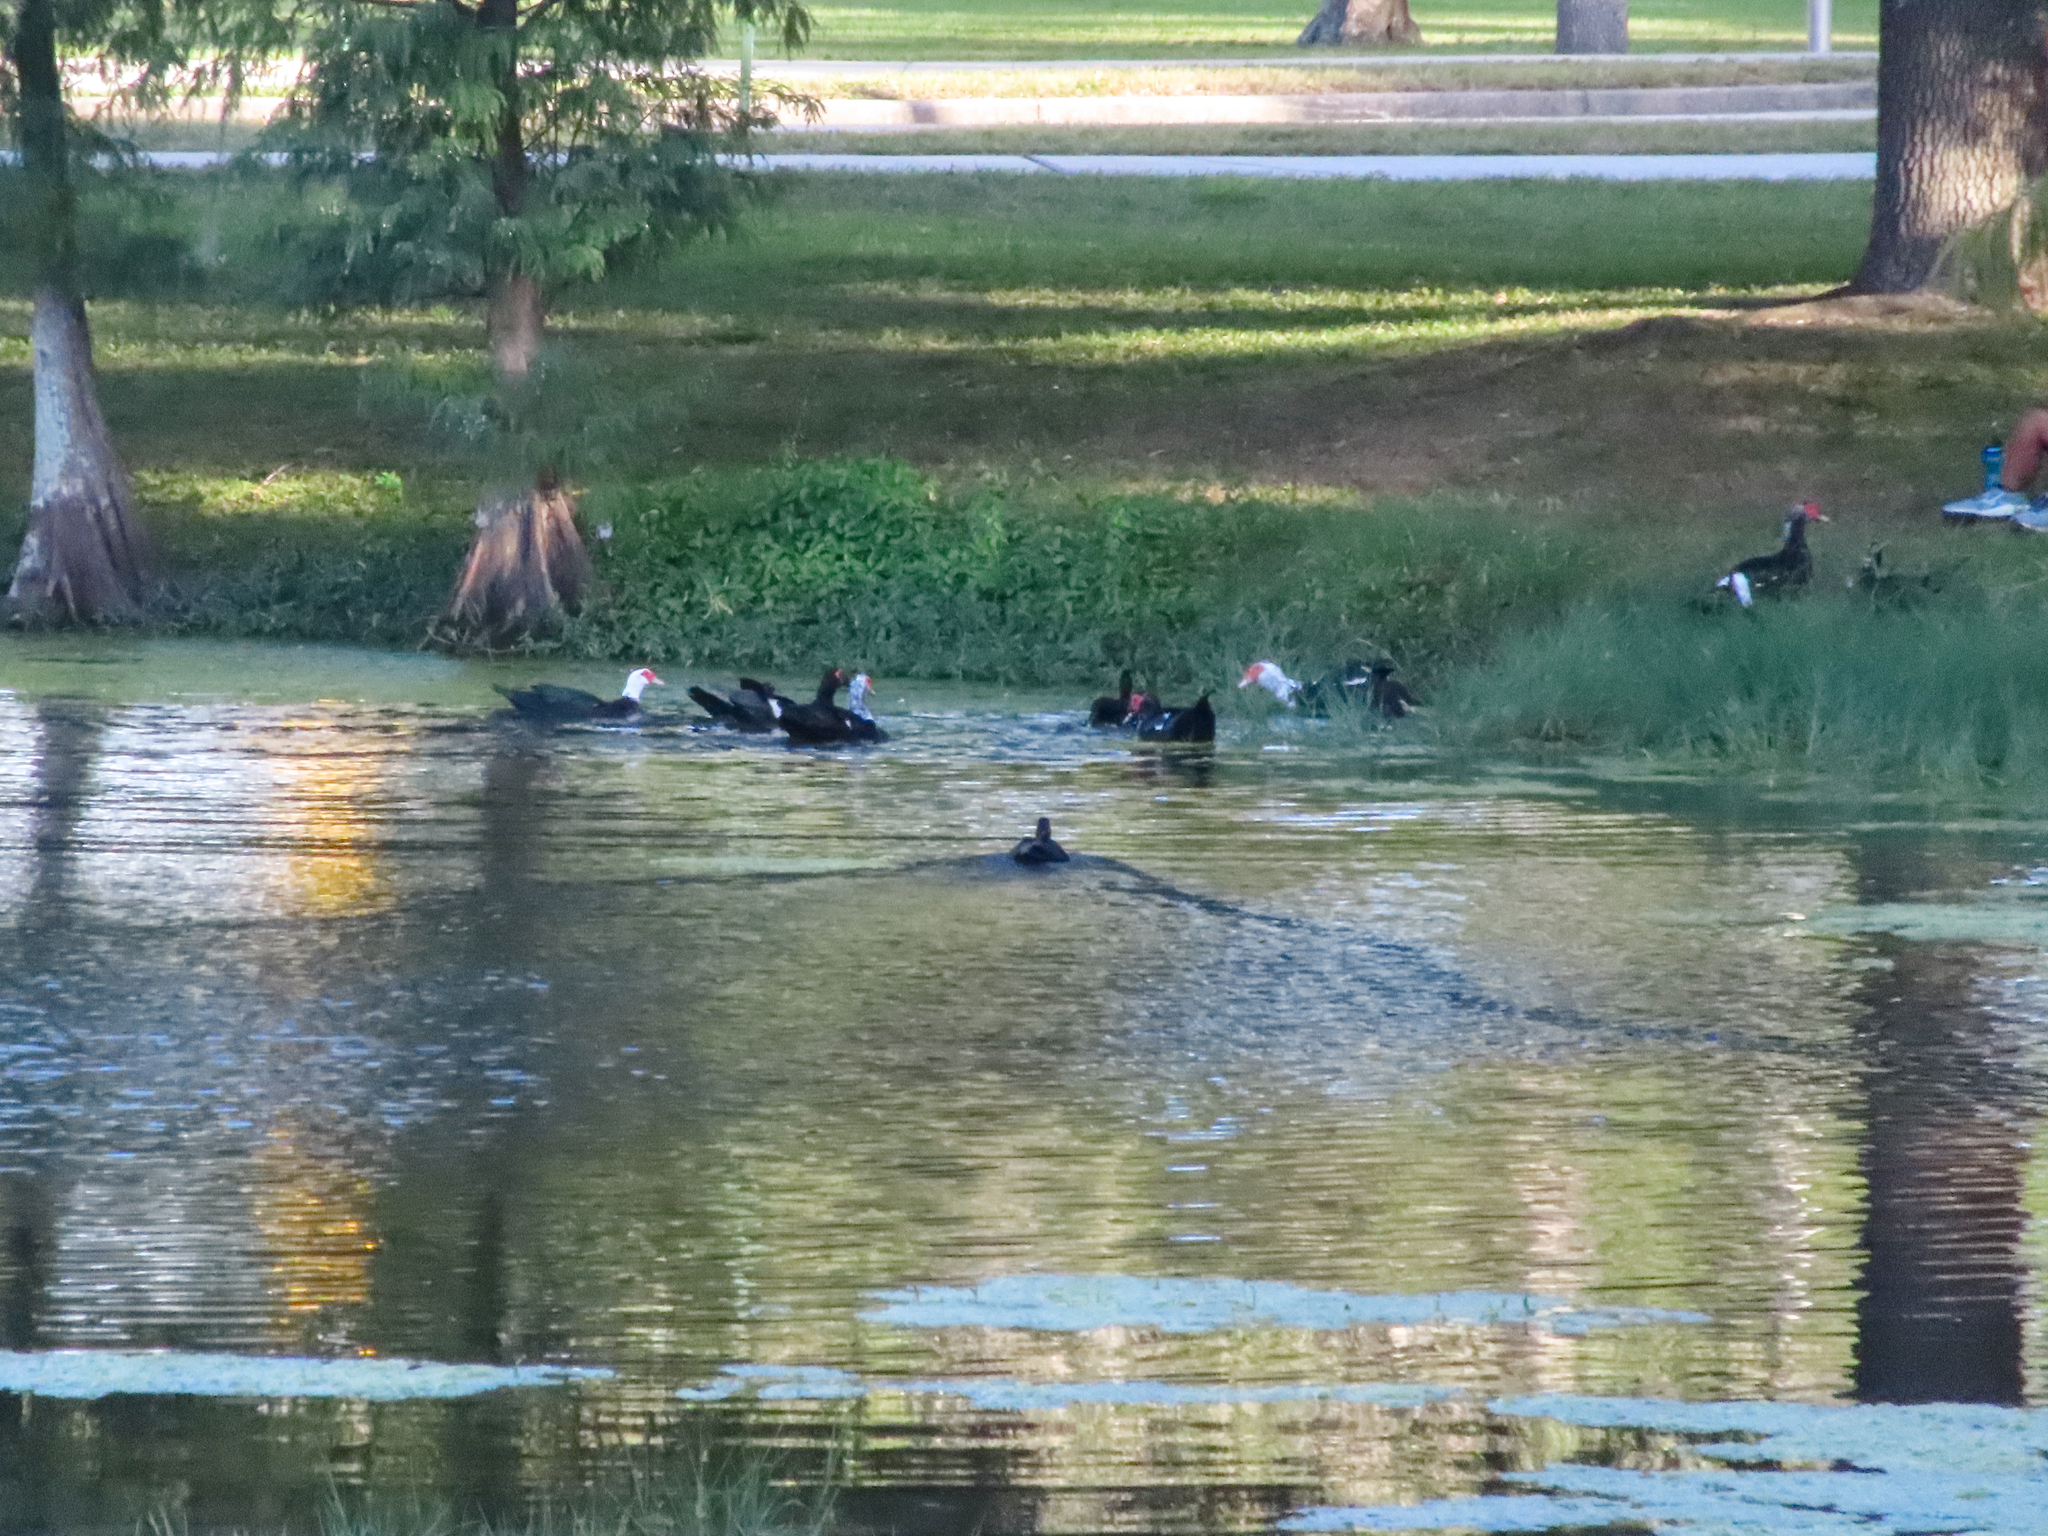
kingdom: Animalia
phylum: Chordata
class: Aves
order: Anseriformes
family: Anatidae
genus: Cairina
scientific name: Cairina moschata
